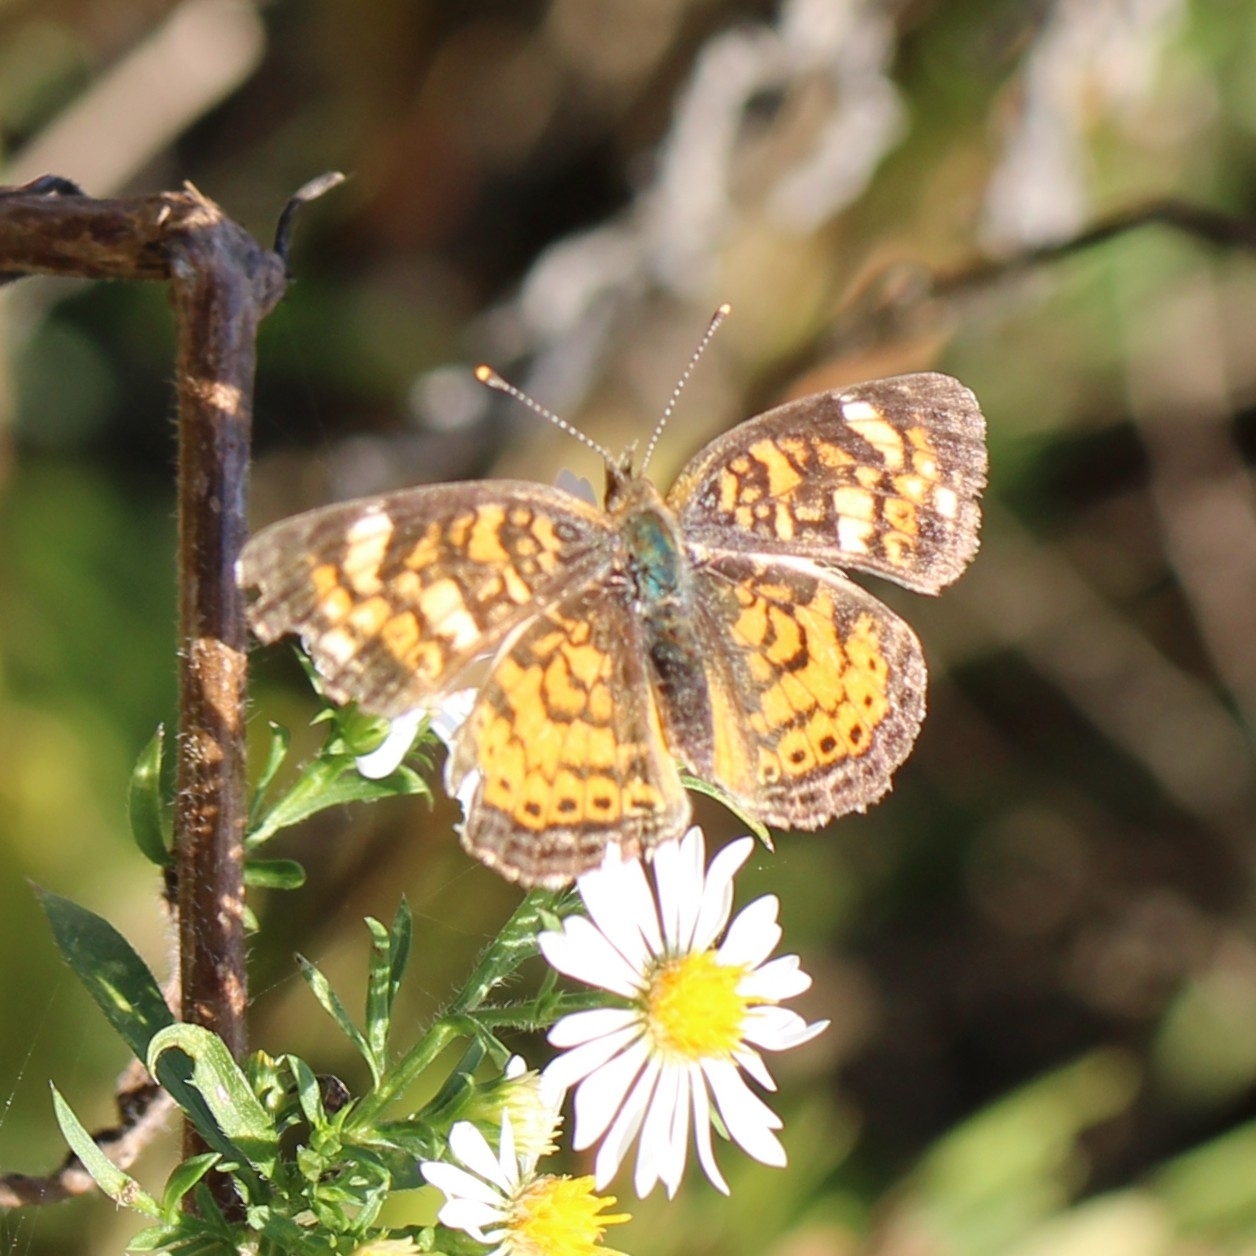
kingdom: Animalia
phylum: Arthropoda
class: Insecta
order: Lepidoptera
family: Nymphalidae
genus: Phyciodes
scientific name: Phyciodes tharos
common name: Pearl crescent
